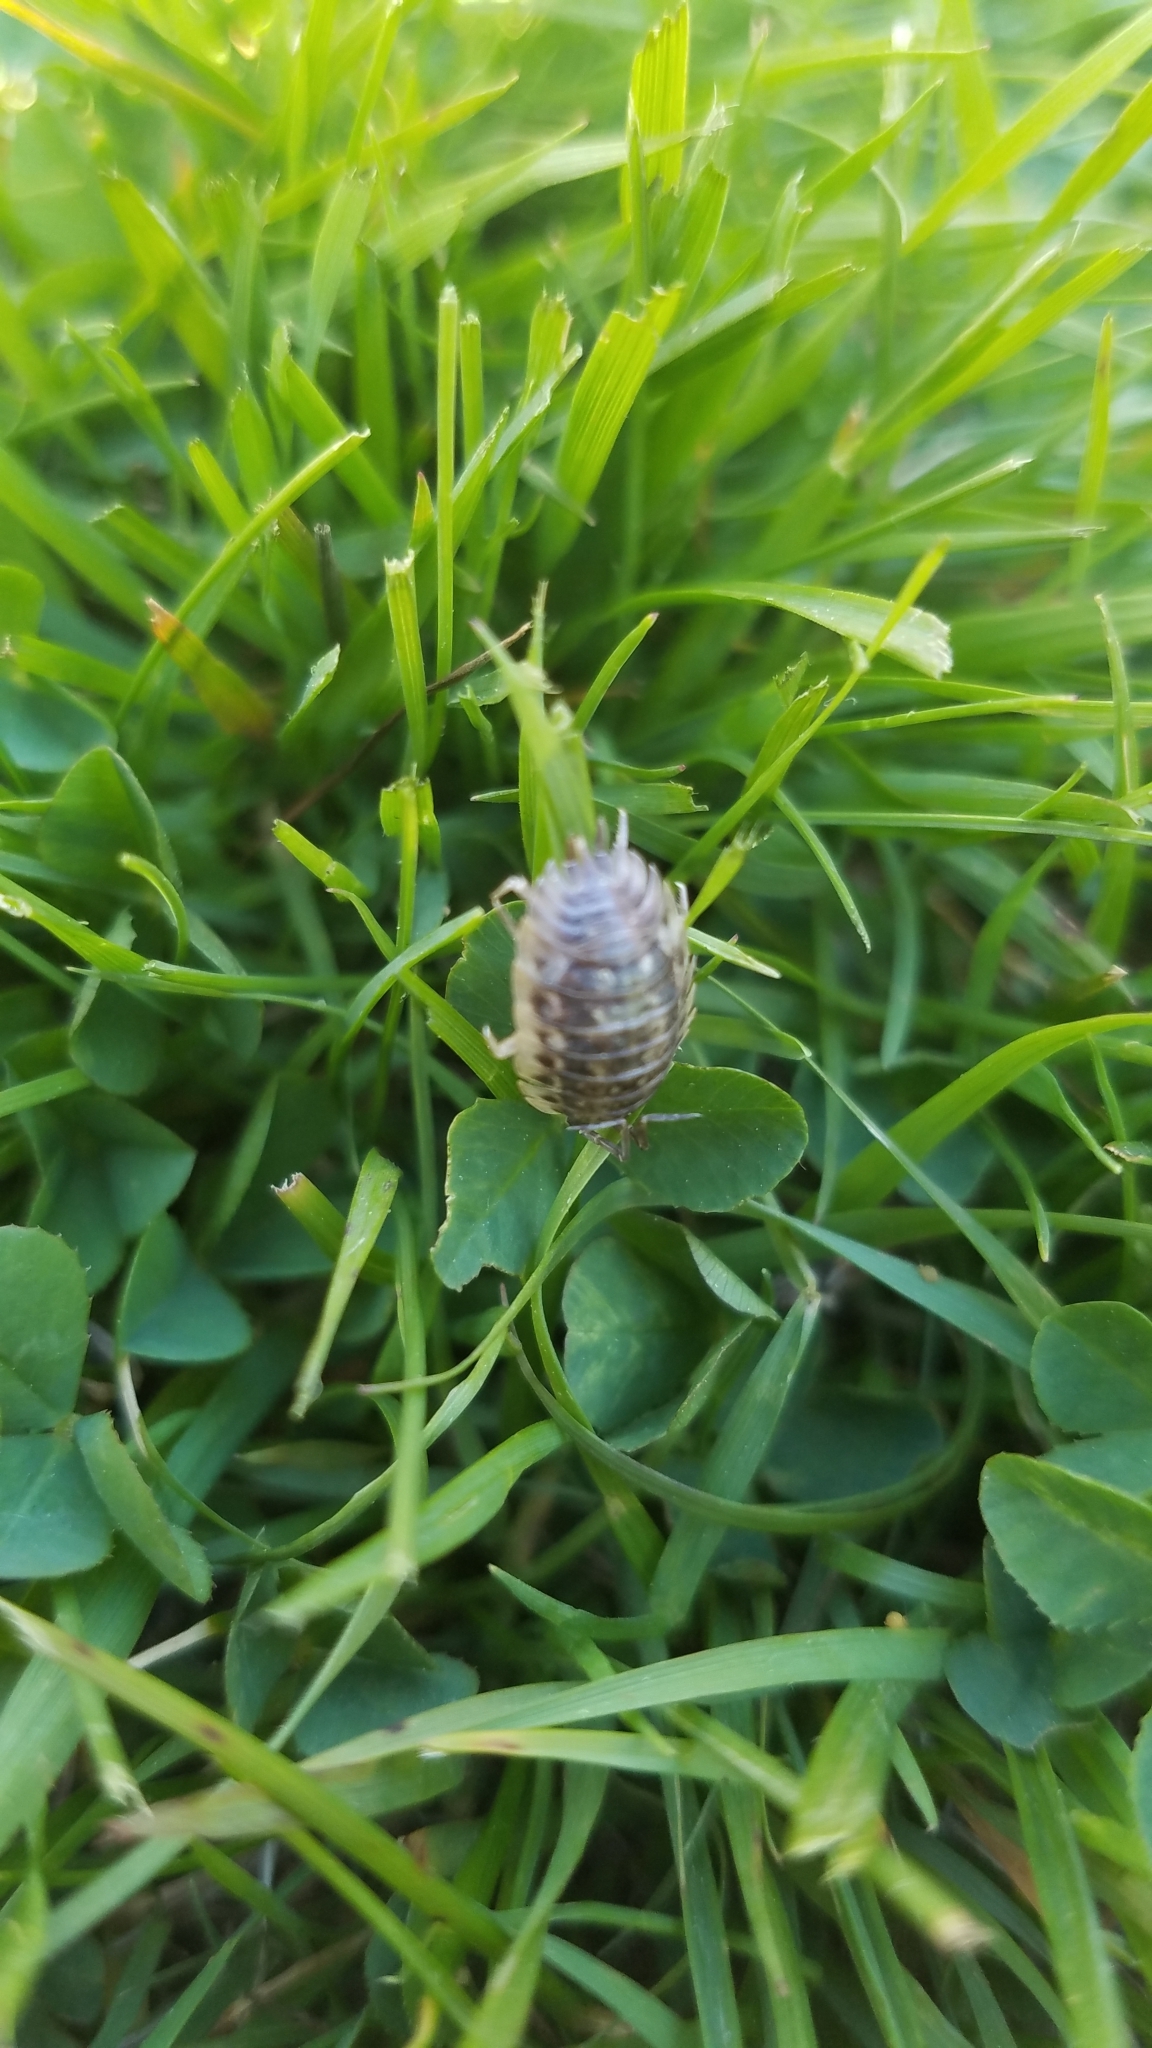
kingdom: Animalia
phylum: Arthropoda
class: Malacostraca
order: Isopoda
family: Oniscidae
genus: Oniscus
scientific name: Oniscus asellus
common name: Common shiny woodlouse
